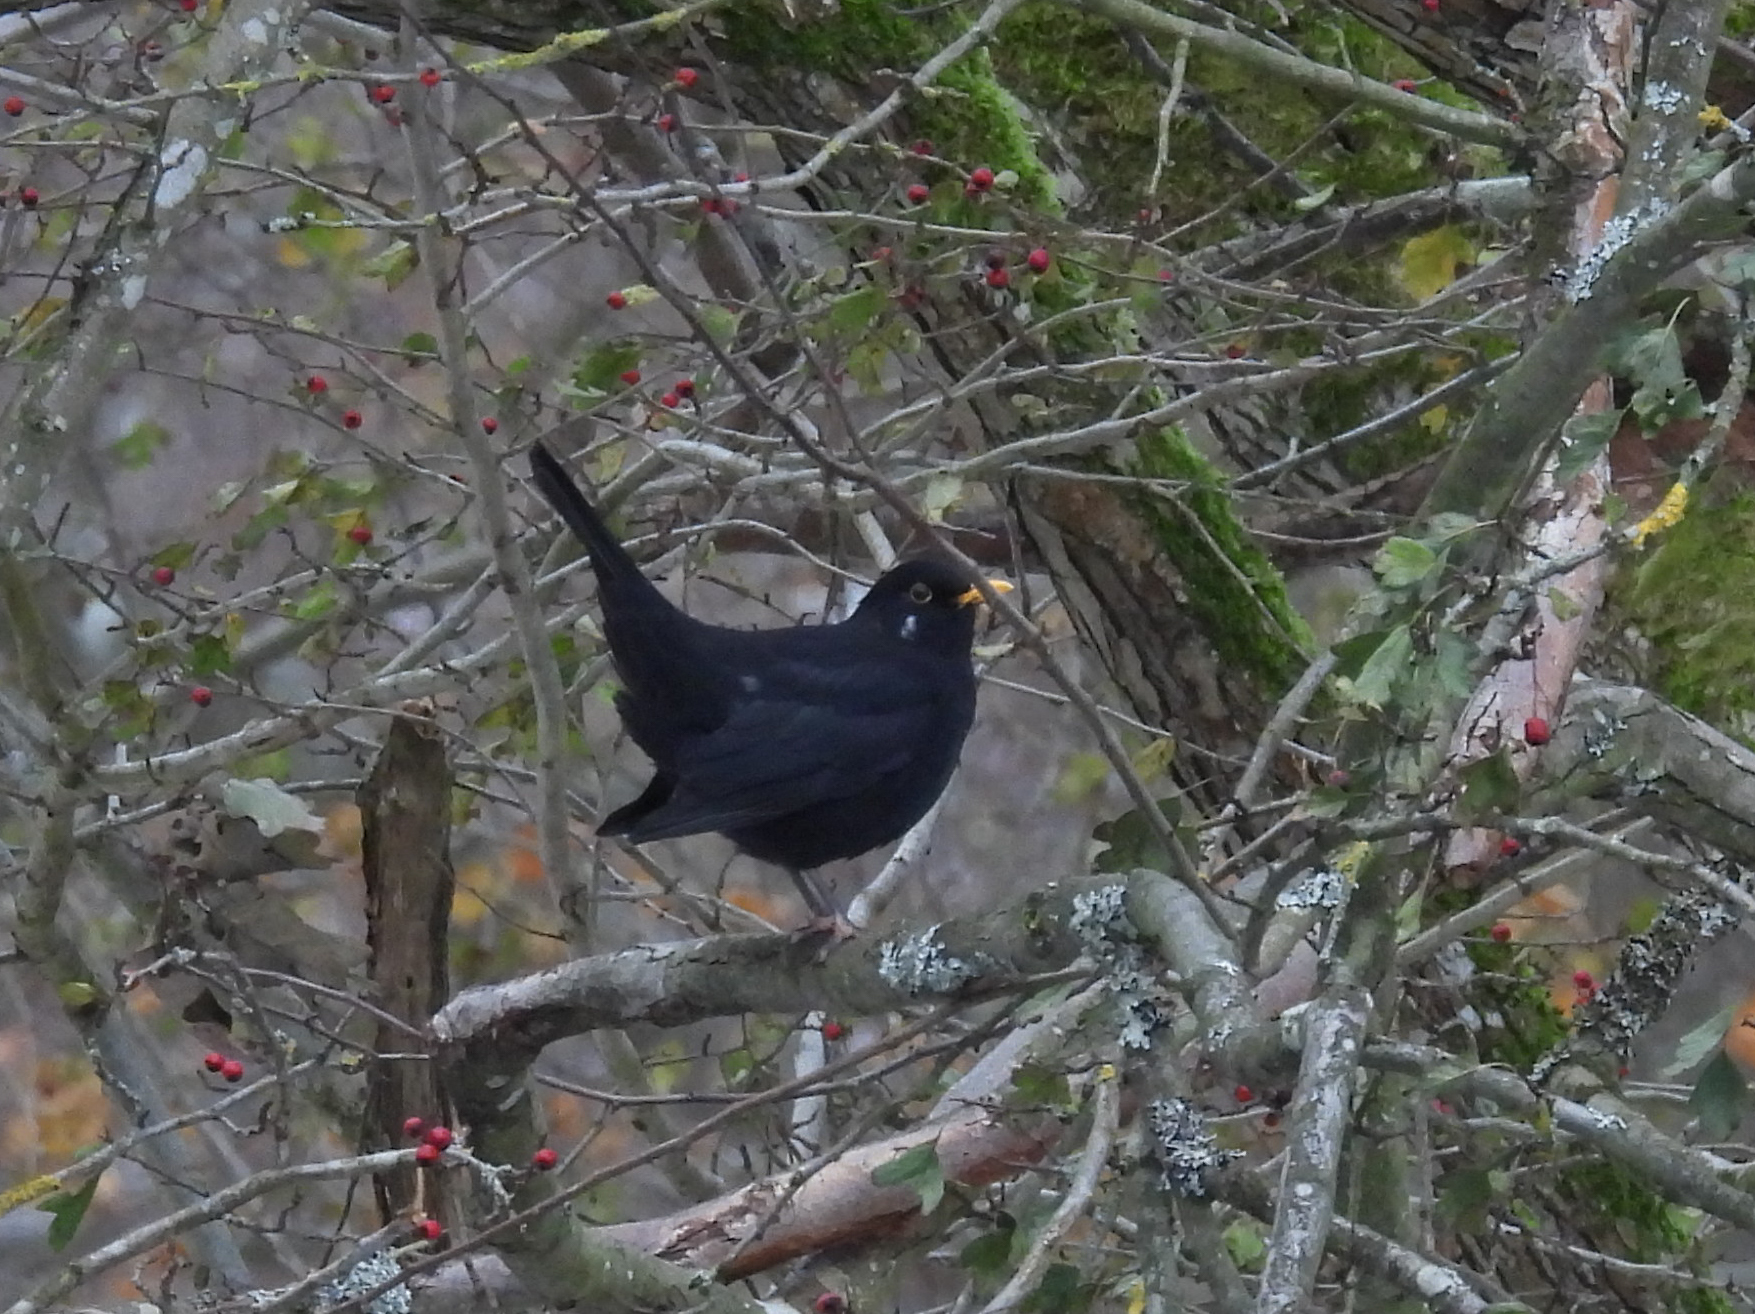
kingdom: Animalia
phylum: Chordata
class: Aves
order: Passeriformes
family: Turdidae
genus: Turdus
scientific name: Turdus merula
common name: Common blackbird
